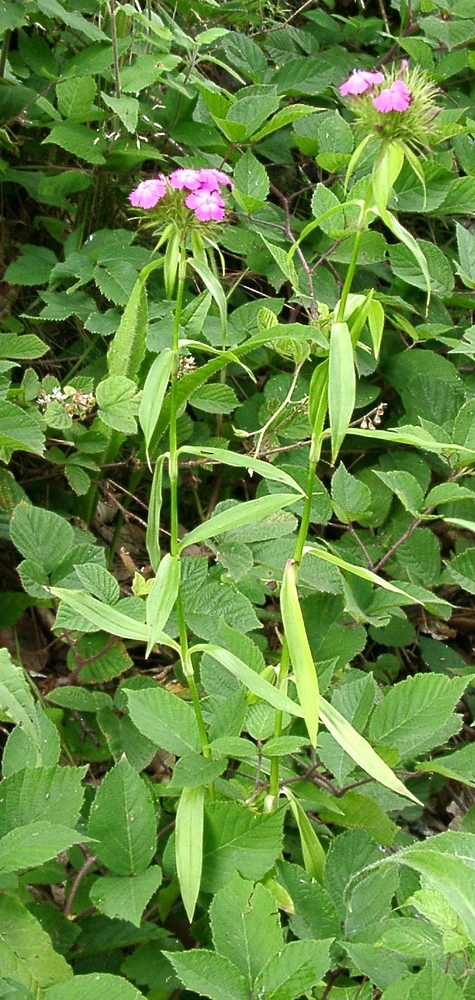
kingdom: Plantae
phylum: Tracheophyta
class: Magnoliopsida
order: Caryophyllales
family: Caryophyllaceae
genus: Dianthus
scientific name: Dianthus barbatus
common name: Sweet-william
